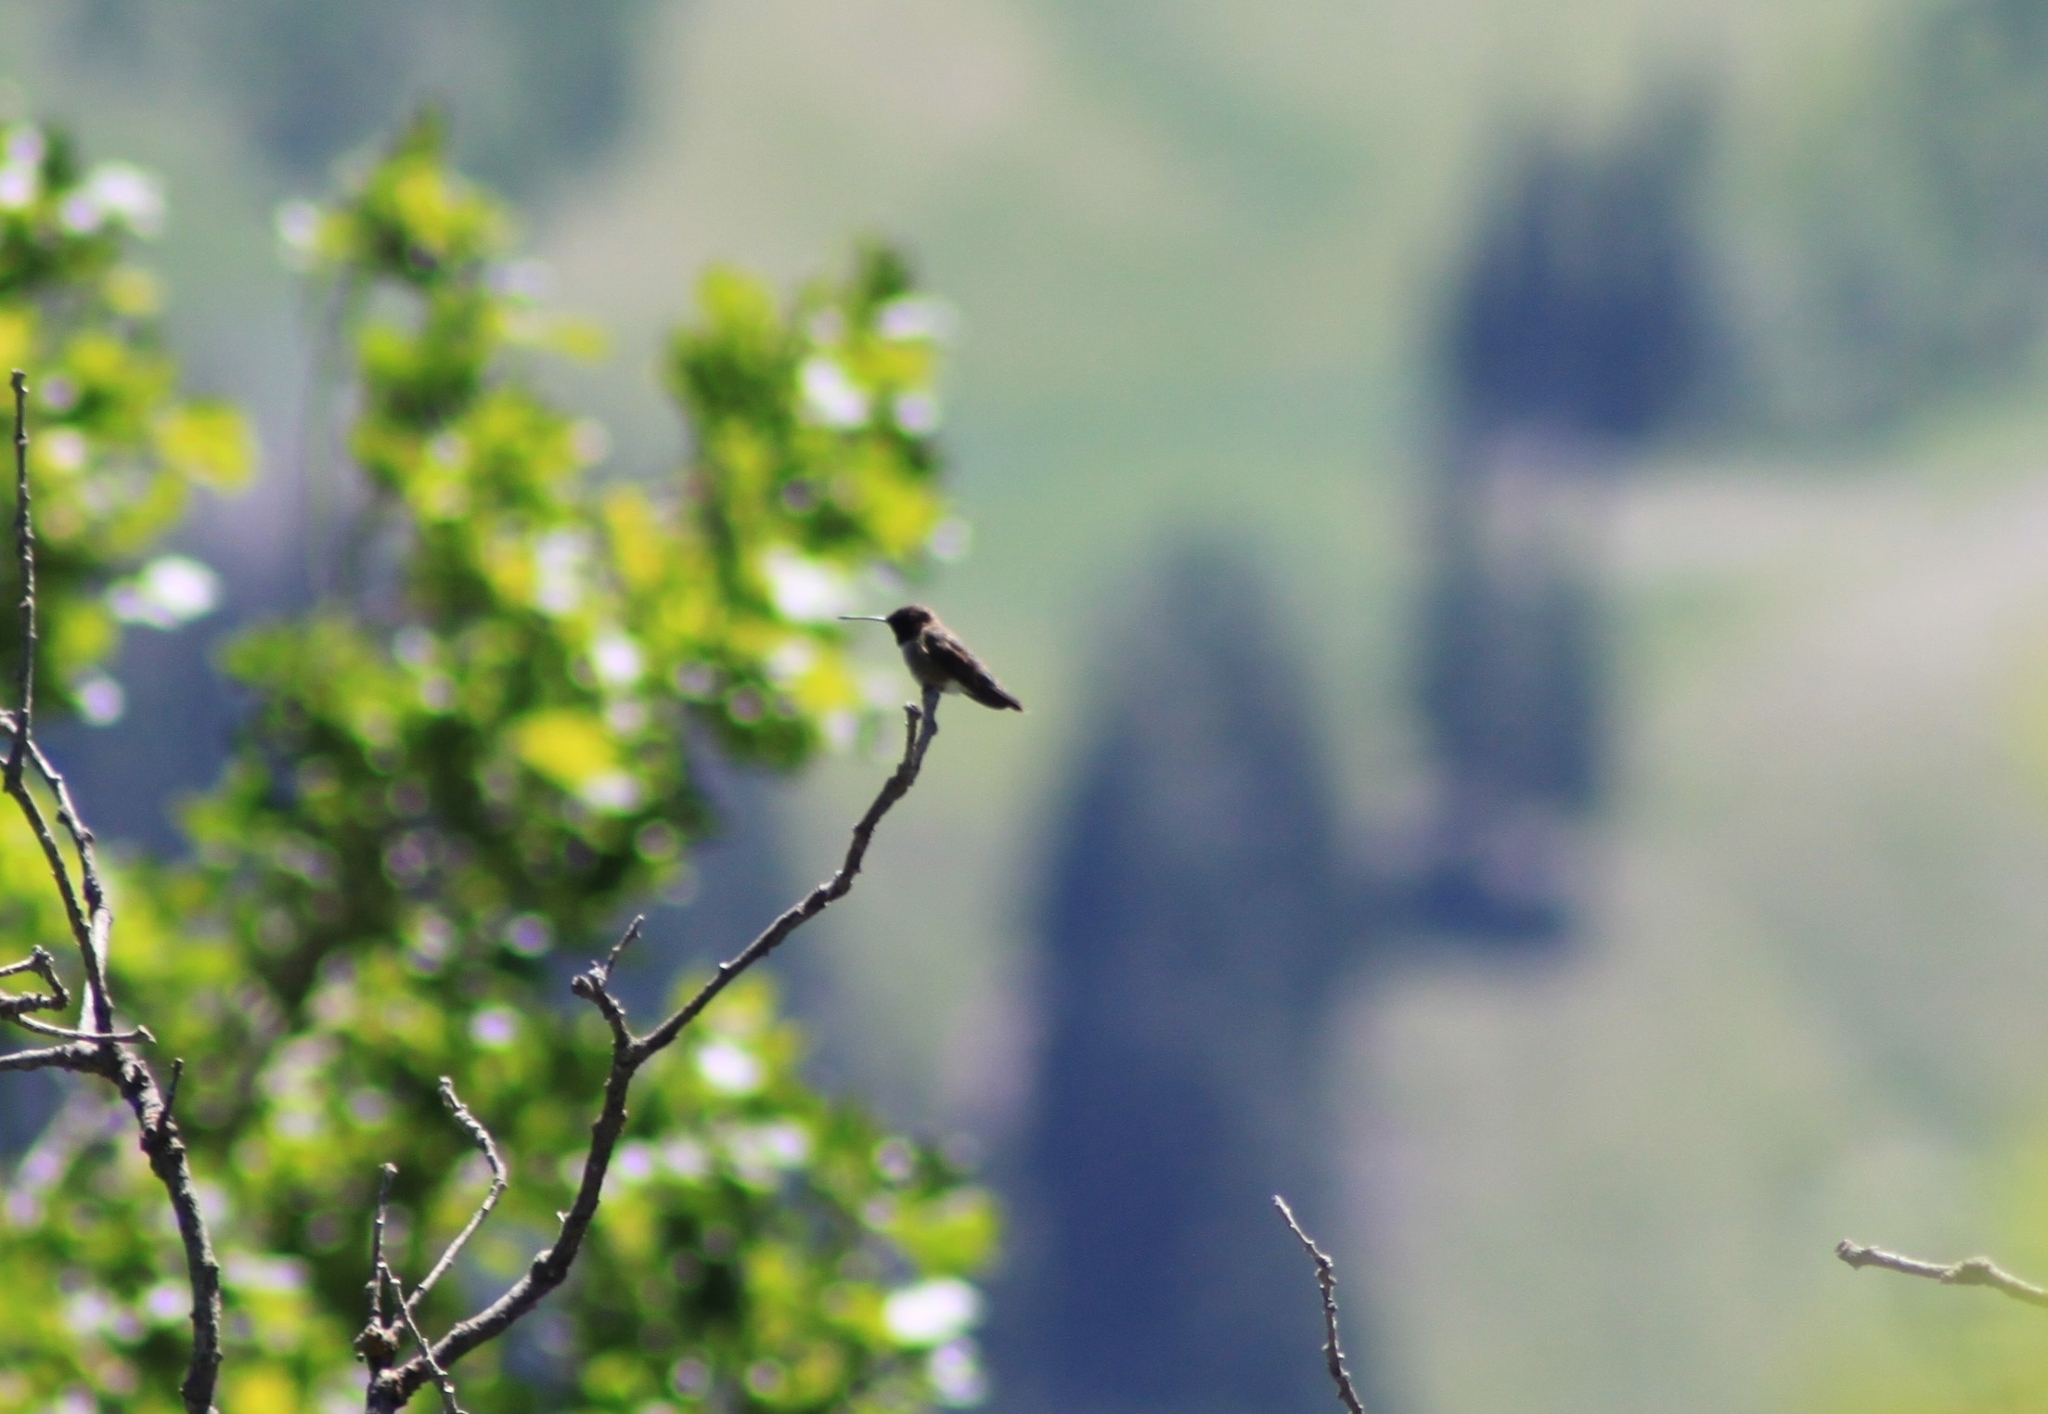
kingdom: Animalia
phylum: Chordata
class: Aves
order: Apodiformes
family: Trochilidae
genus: Archilochus
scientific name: Archilochus alexandri
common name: Black-chinned hummingbird
